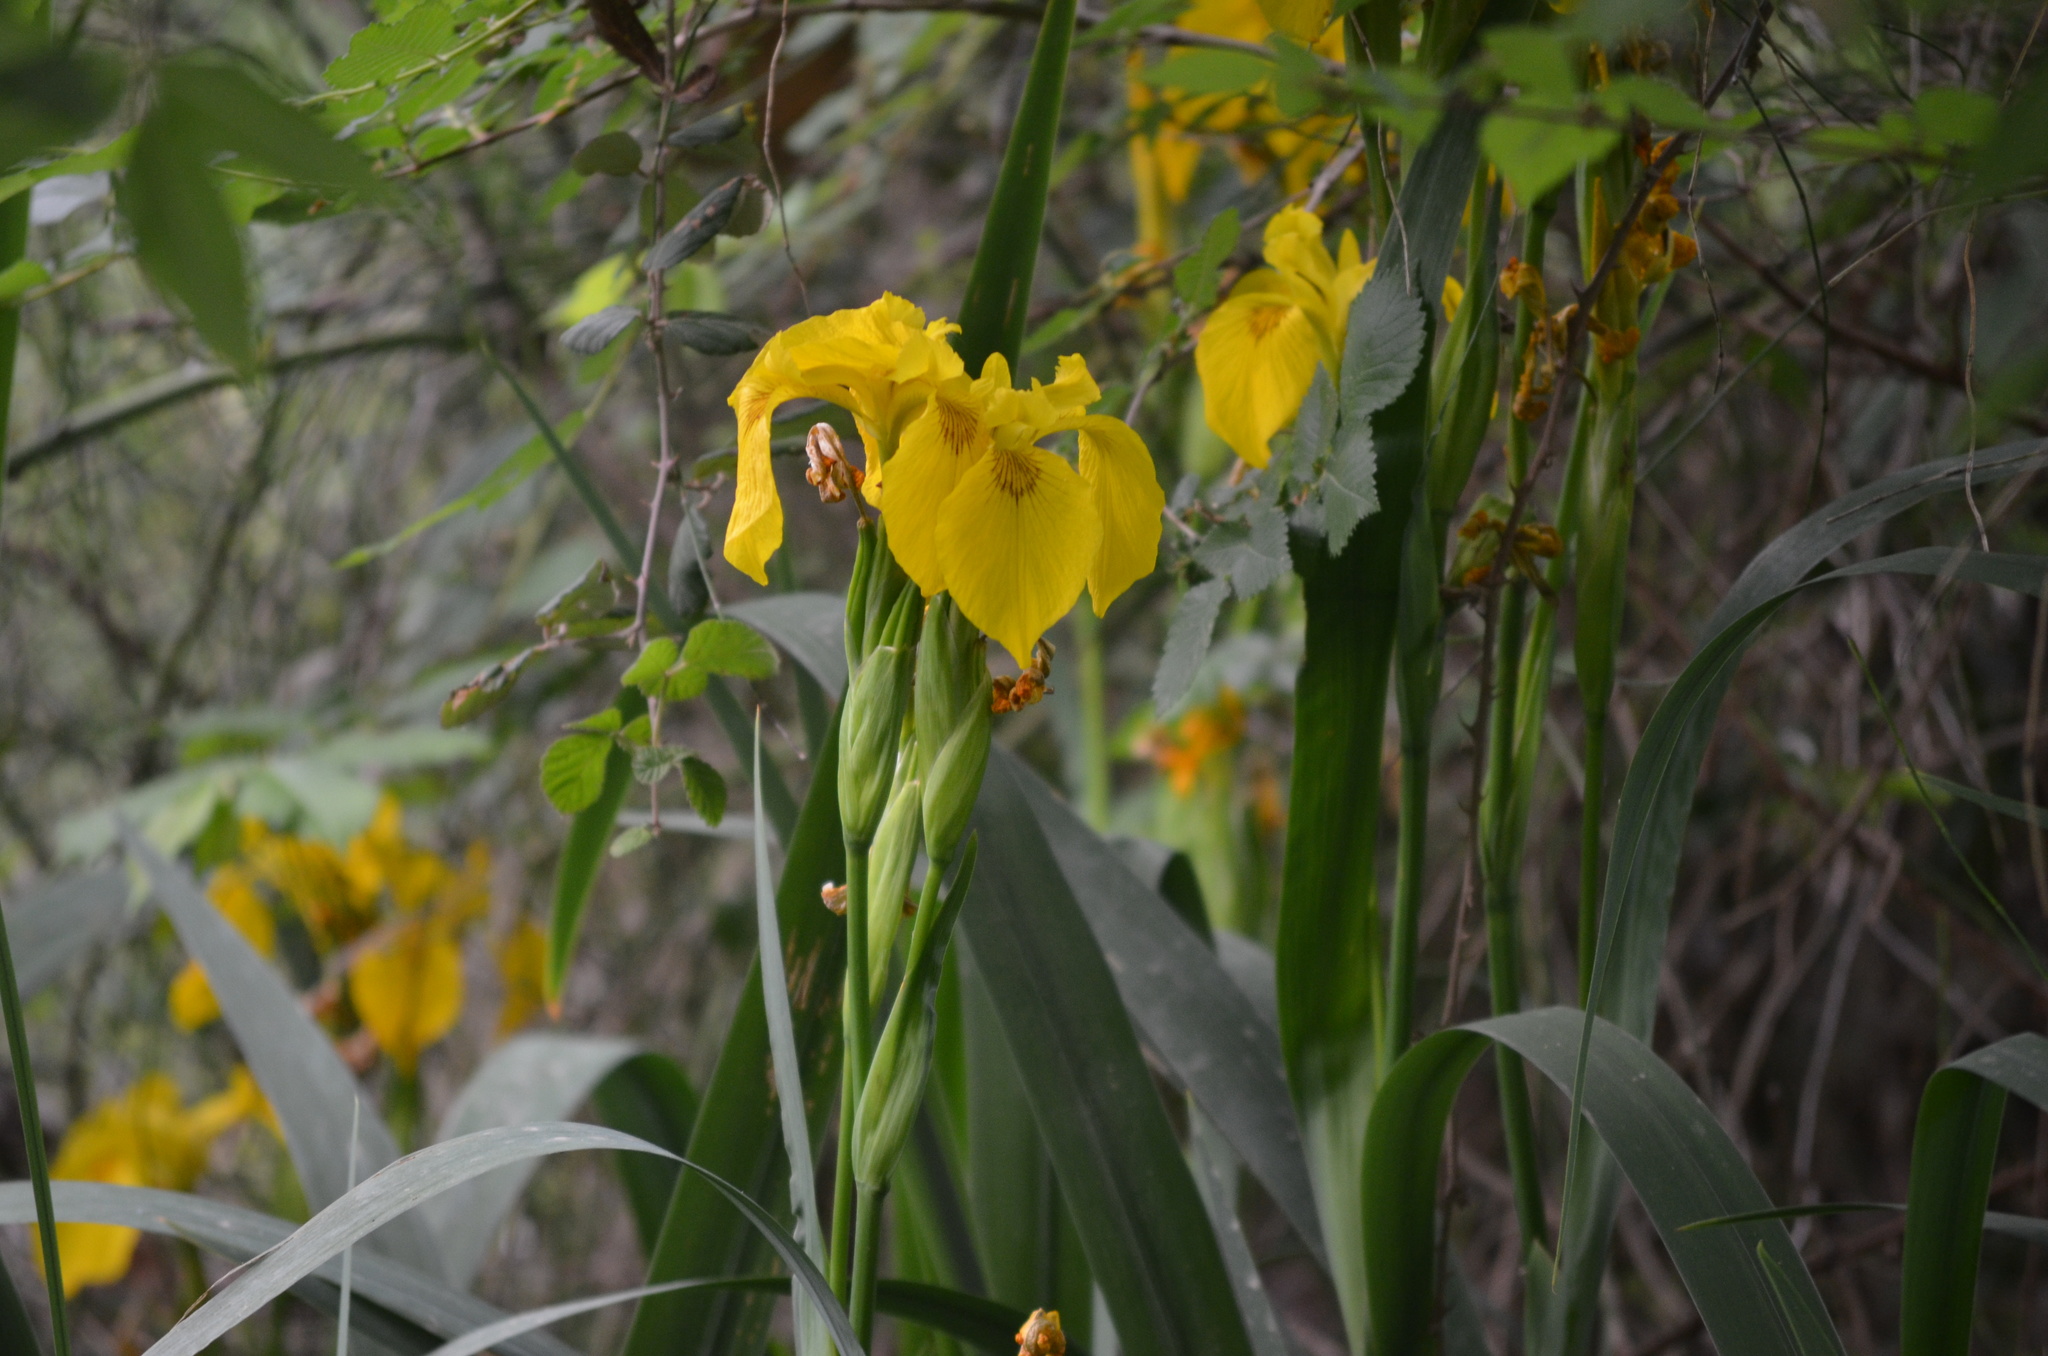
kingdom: Plantae
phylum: Tracheophyta
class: Liliopsida
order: Asparagales
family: Iridaceae
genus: Iris
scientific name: Iris pseudacorus
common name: Yellow flag
